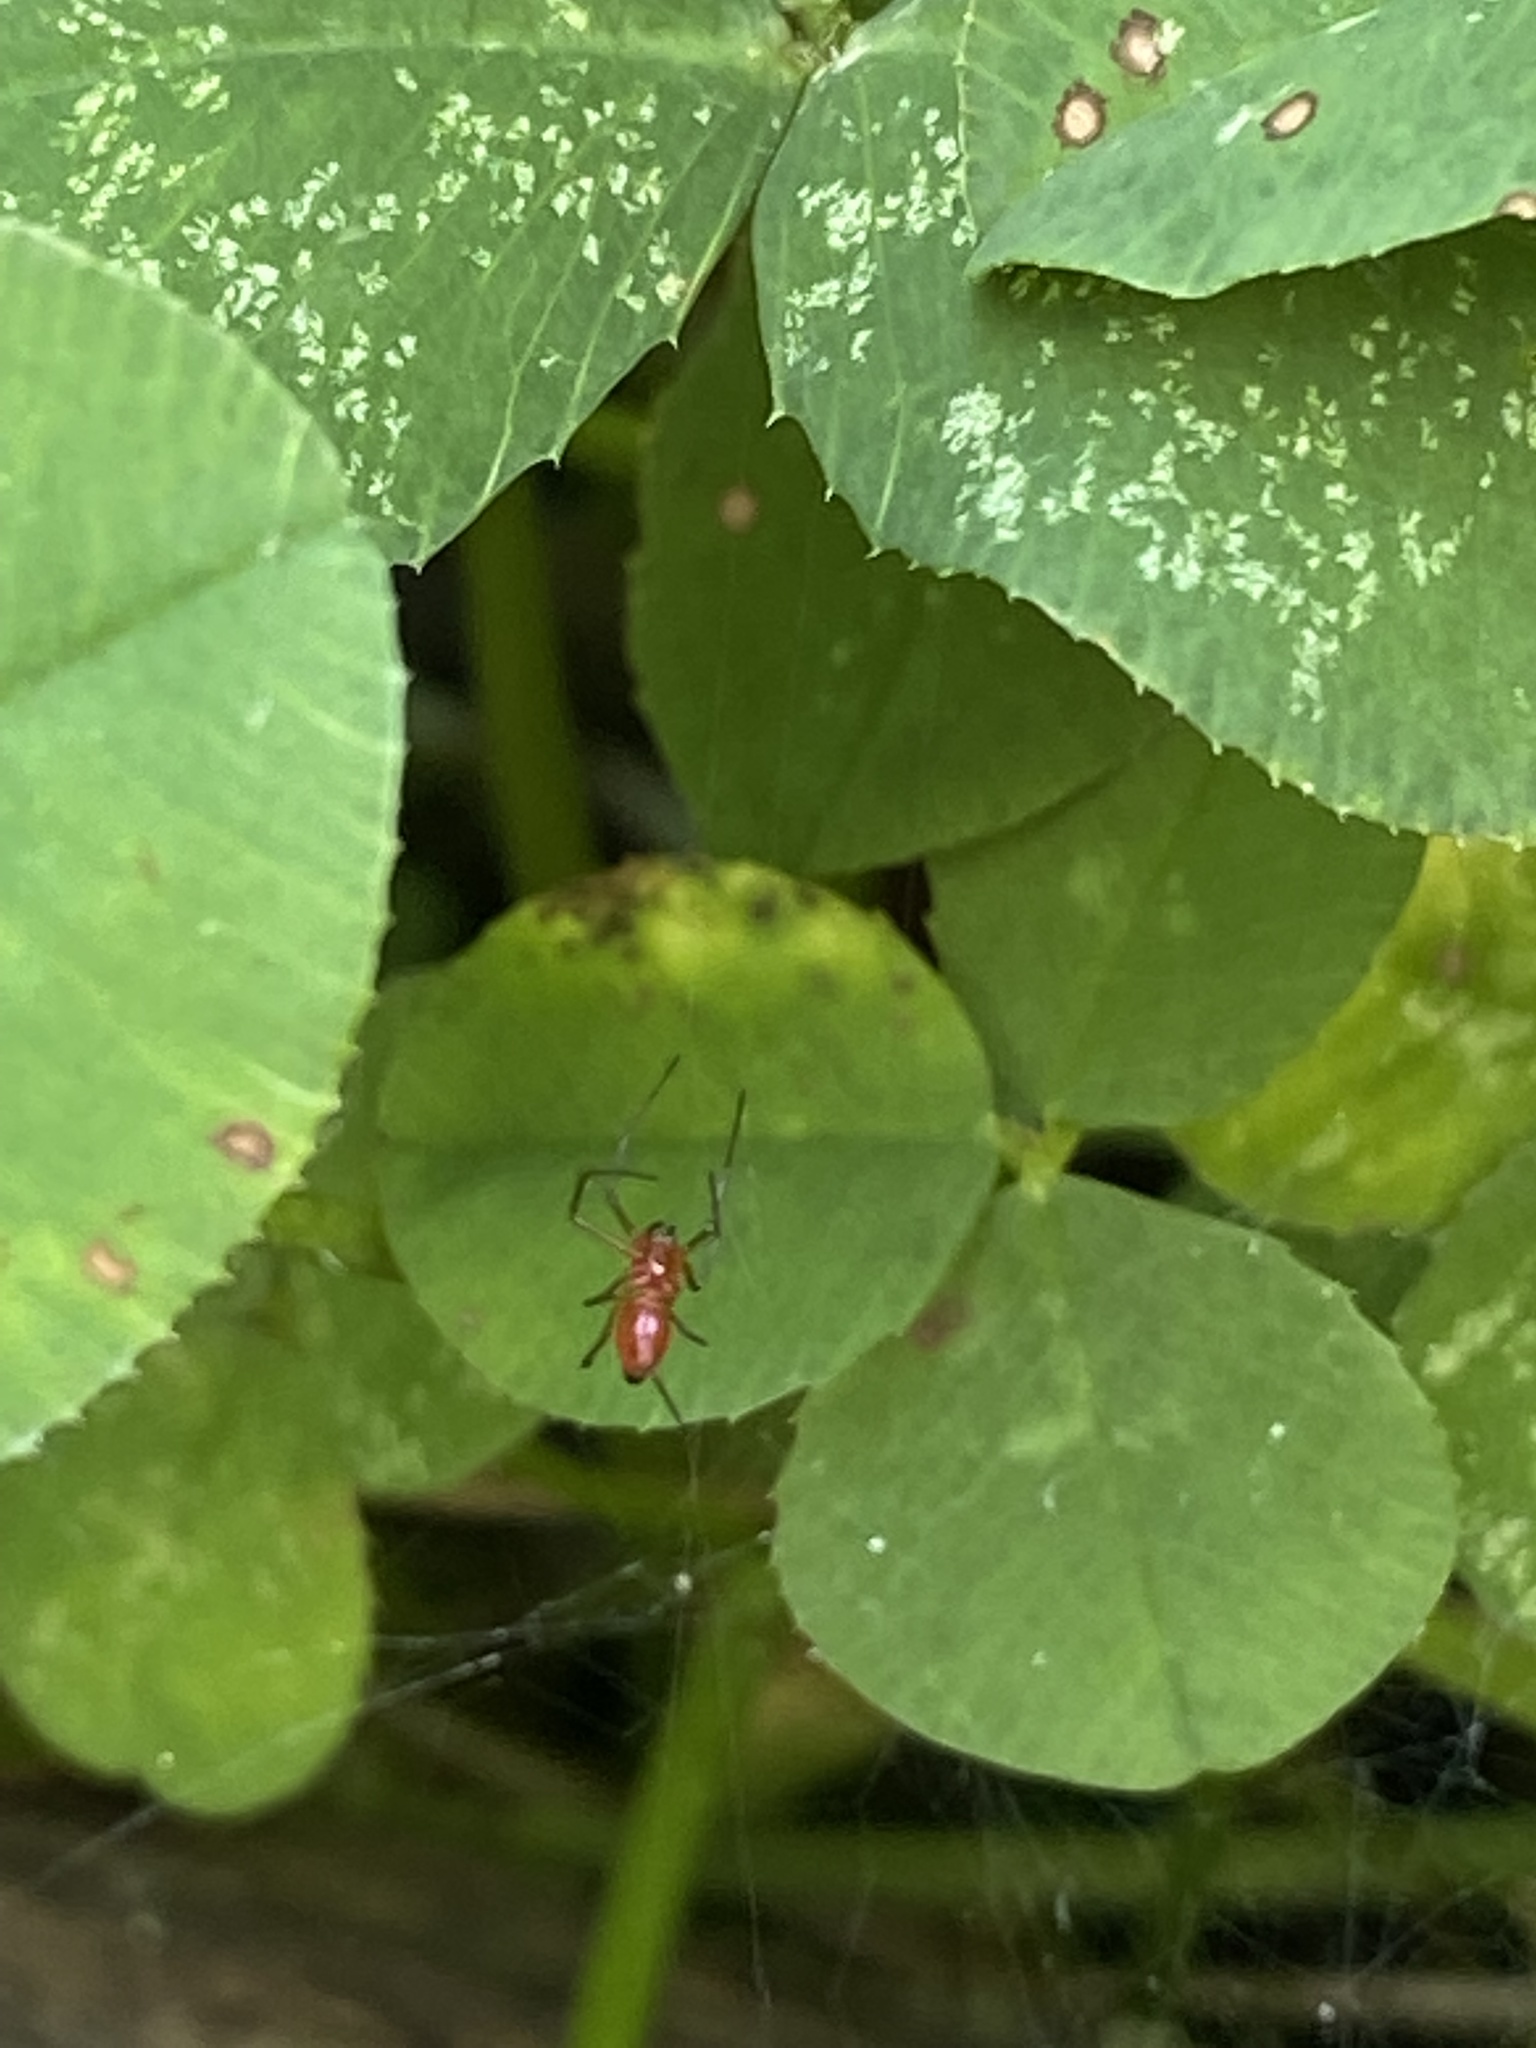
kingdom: Animalia
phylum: Arthropoda
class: Arachnida
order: Araneae
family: Linyphiidae
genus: Florinda
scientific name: Florinda coccinea
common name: Black-tailed red sheetweaver
